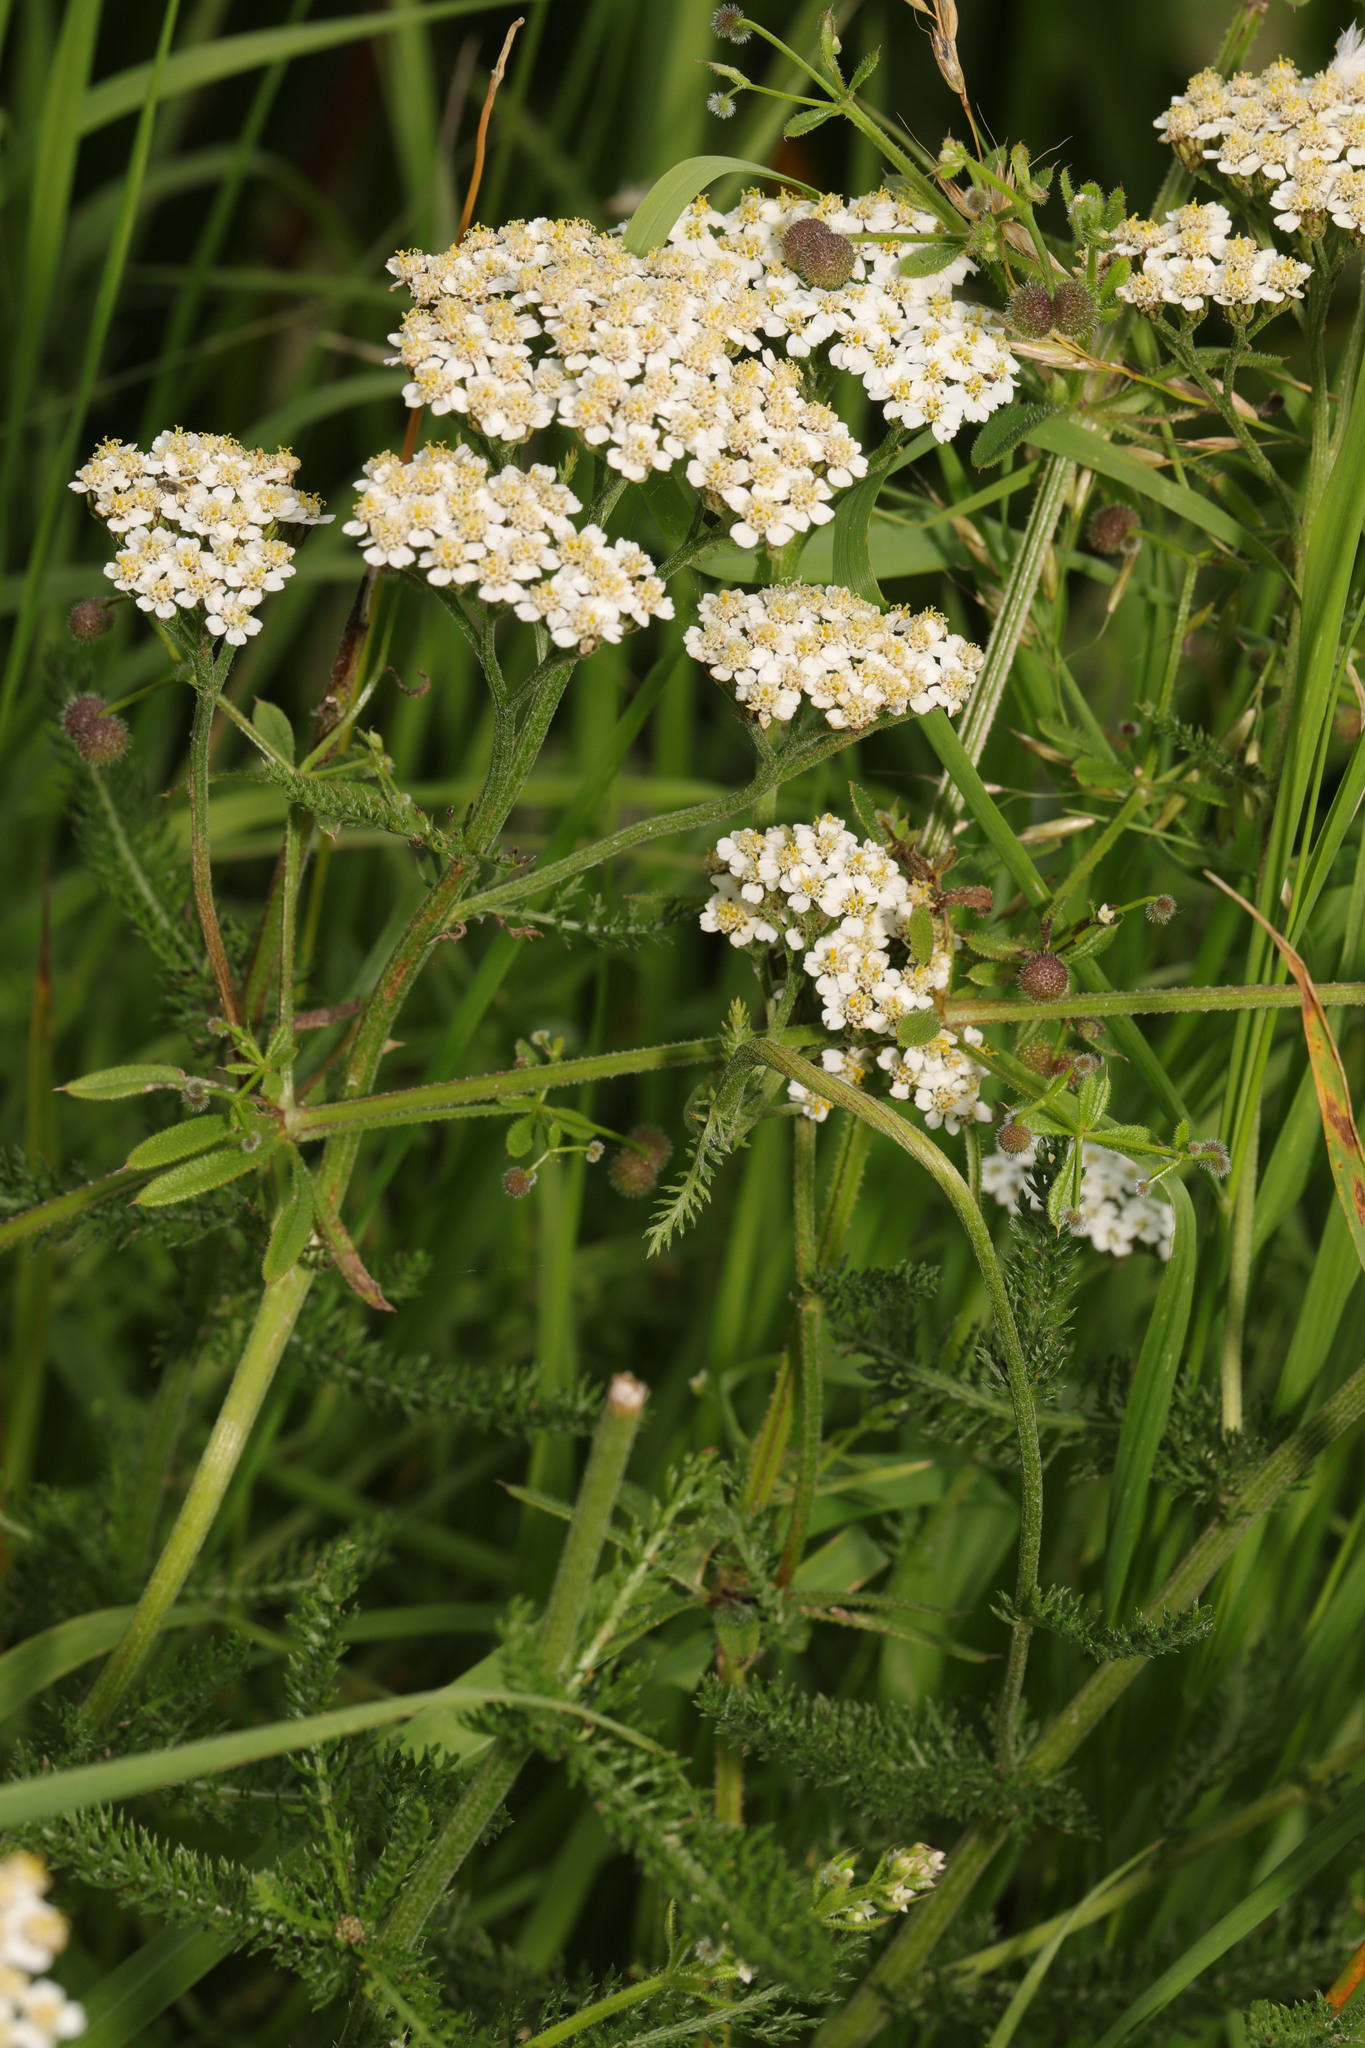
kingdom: Plantae
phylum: Tracheophyta
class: Magnoliopsida
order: Asterales
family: Asteraceae
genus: Achillea
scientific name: Achillea millefolium
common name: Yarrow
